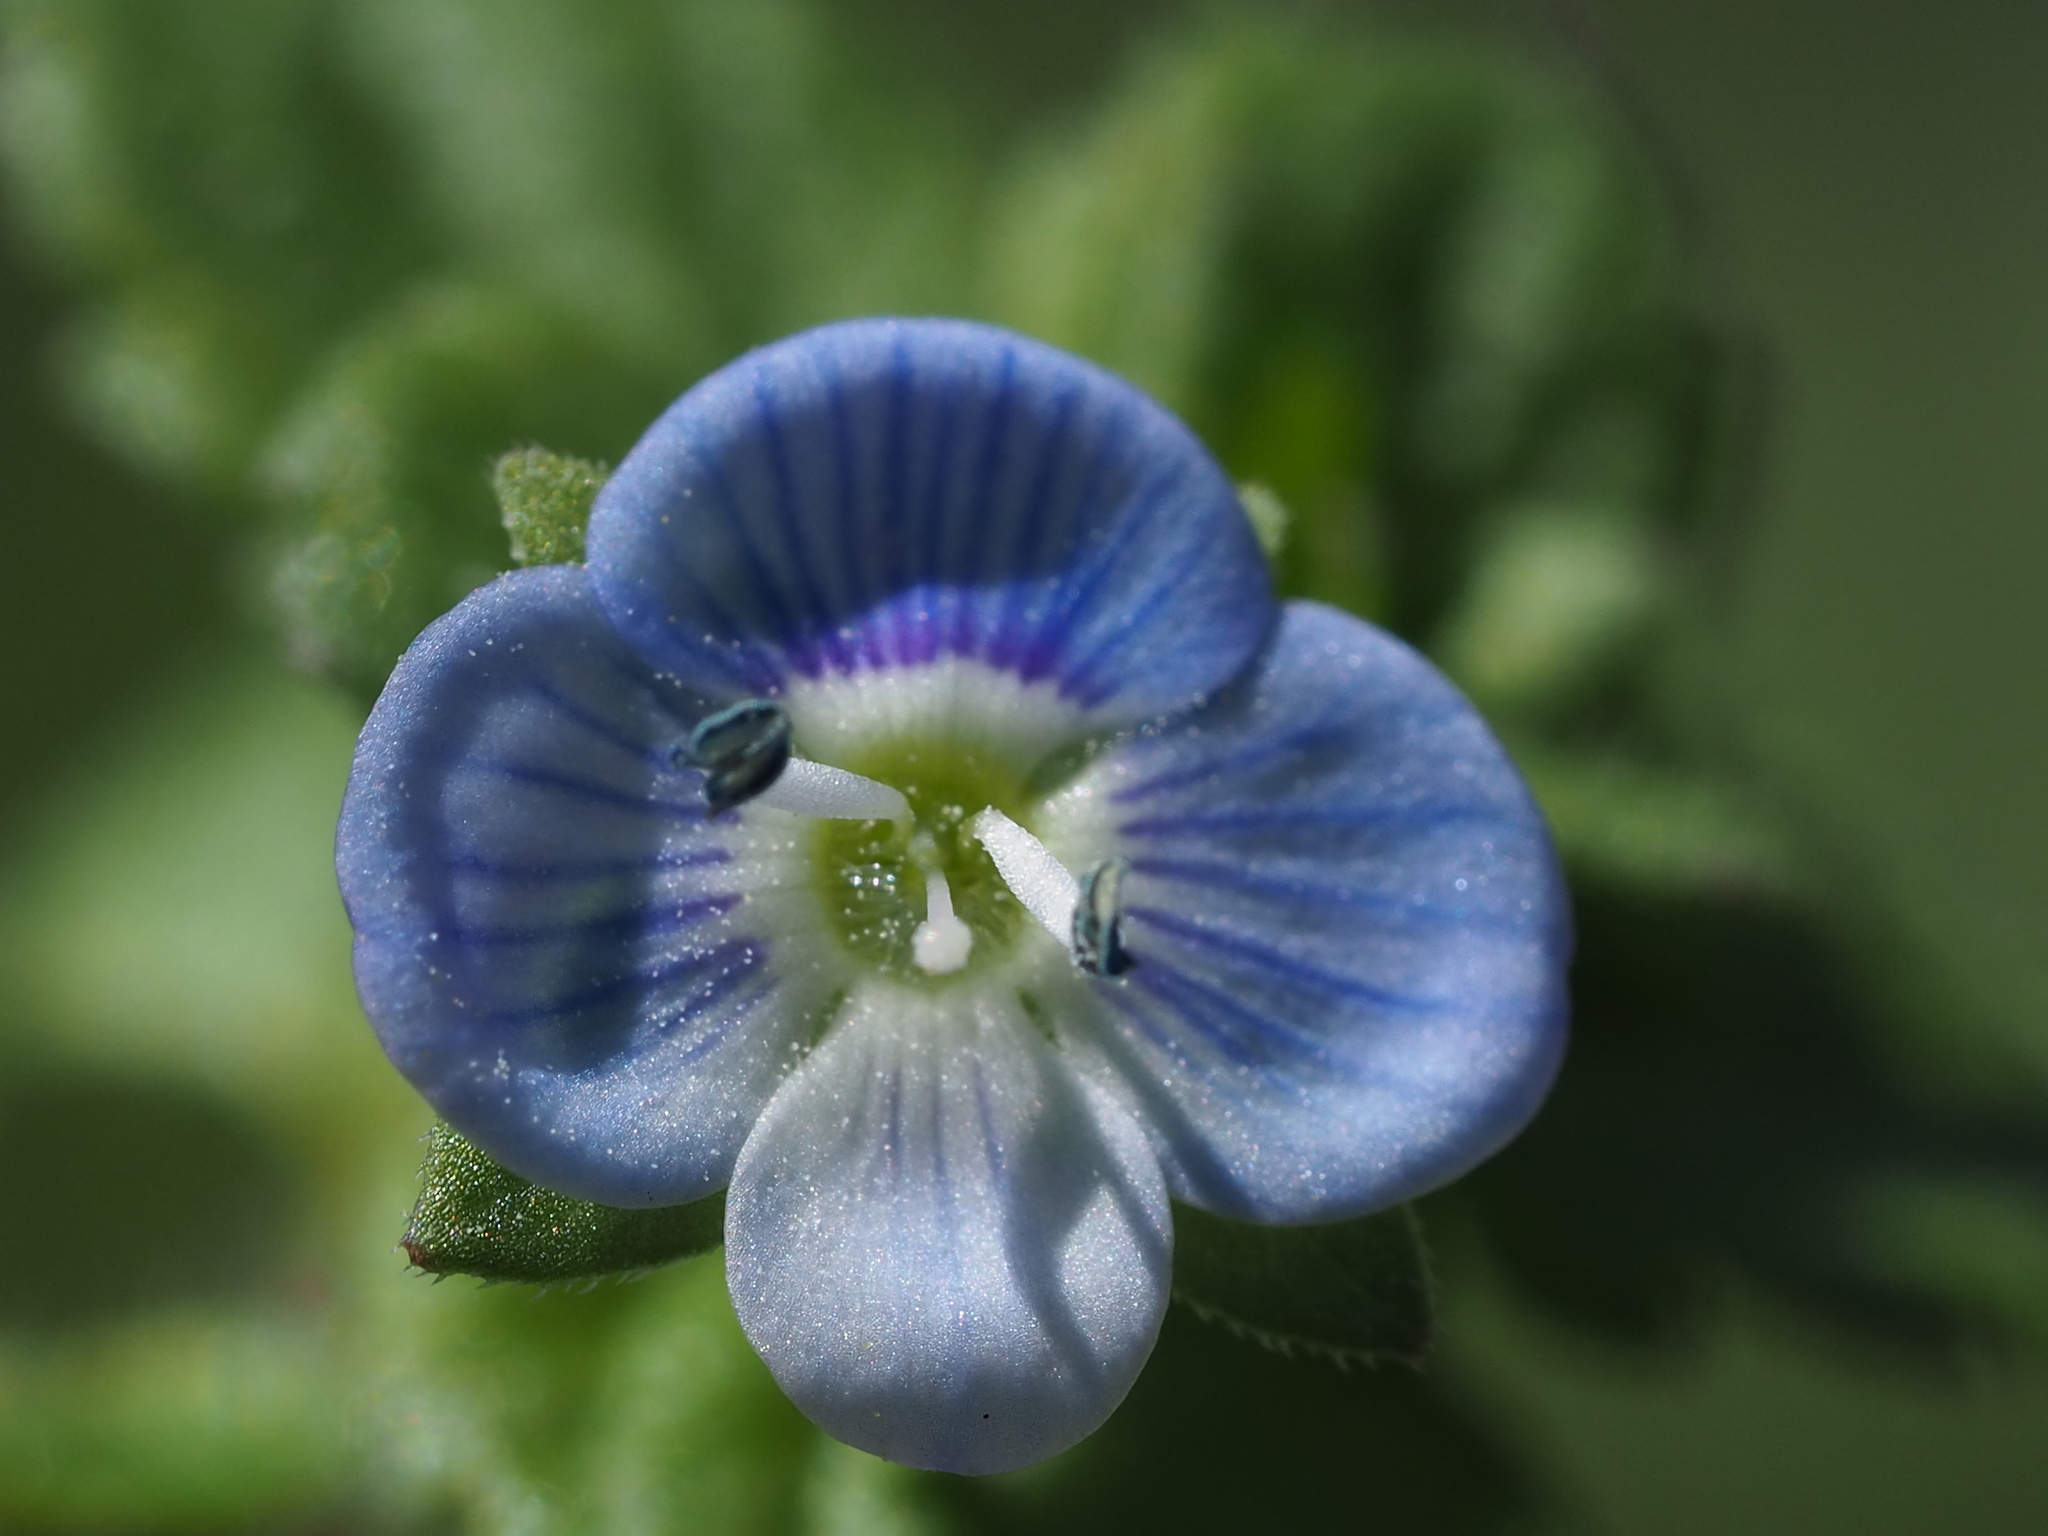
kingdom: Plantae
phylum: Tracheophyta
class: Magnoliopsida
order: Lamiales
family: Plantaginaceae
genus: Veronica
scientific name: Veronica persica
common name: Common field-speedwell
